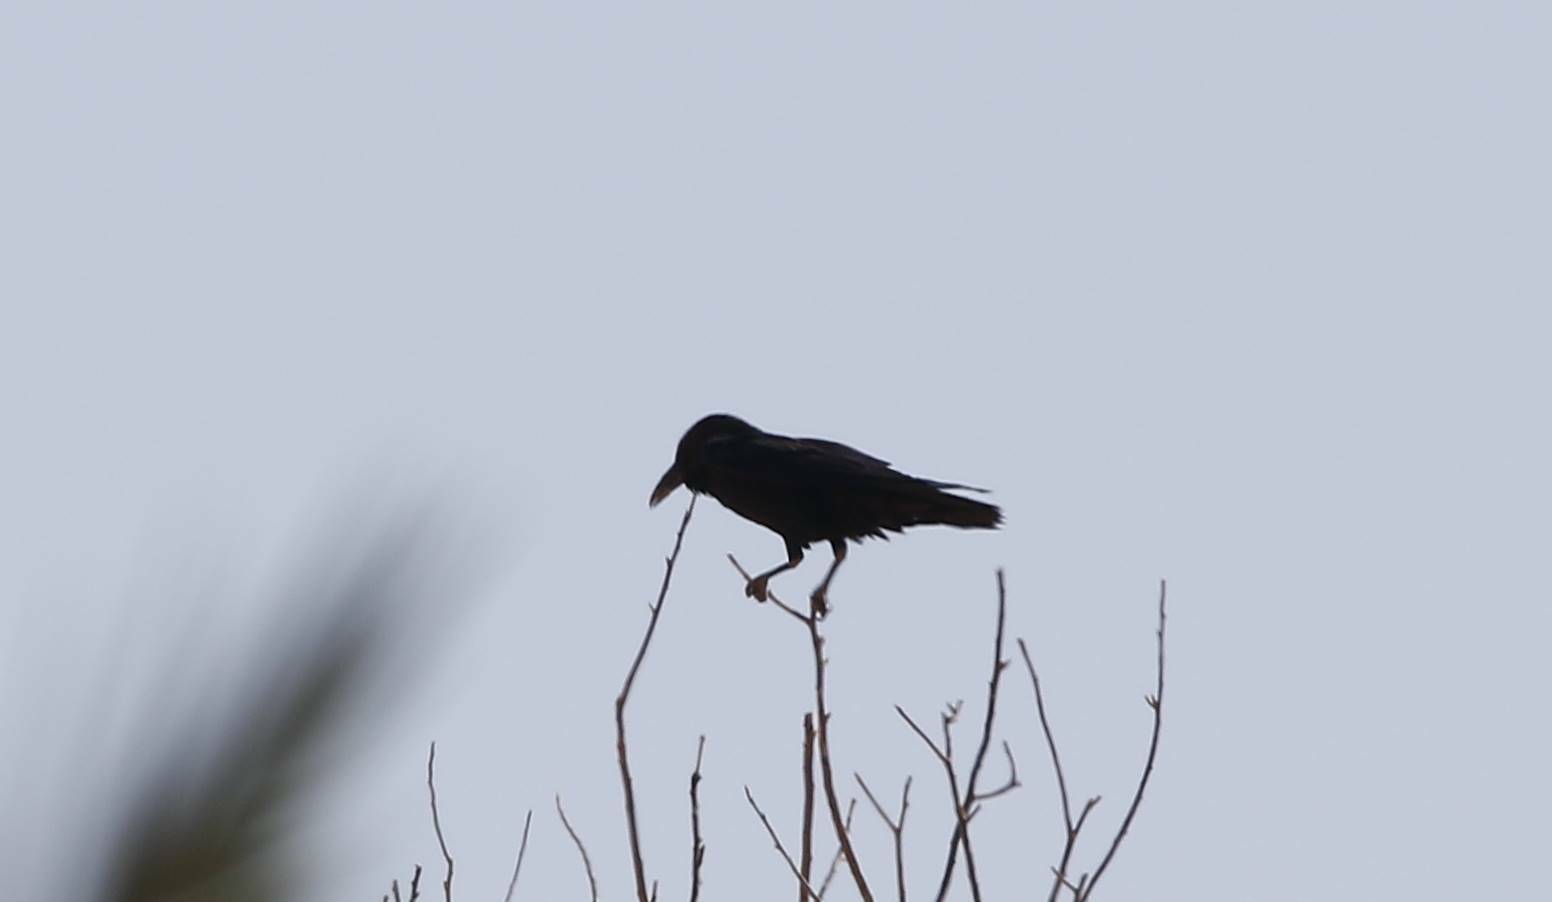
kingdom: Animalia
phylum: Chordata
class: Aves
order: Passeriformes
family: Corvidae
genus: Corvus
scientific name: Corvus ruficollis
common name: Brown-necked raven
